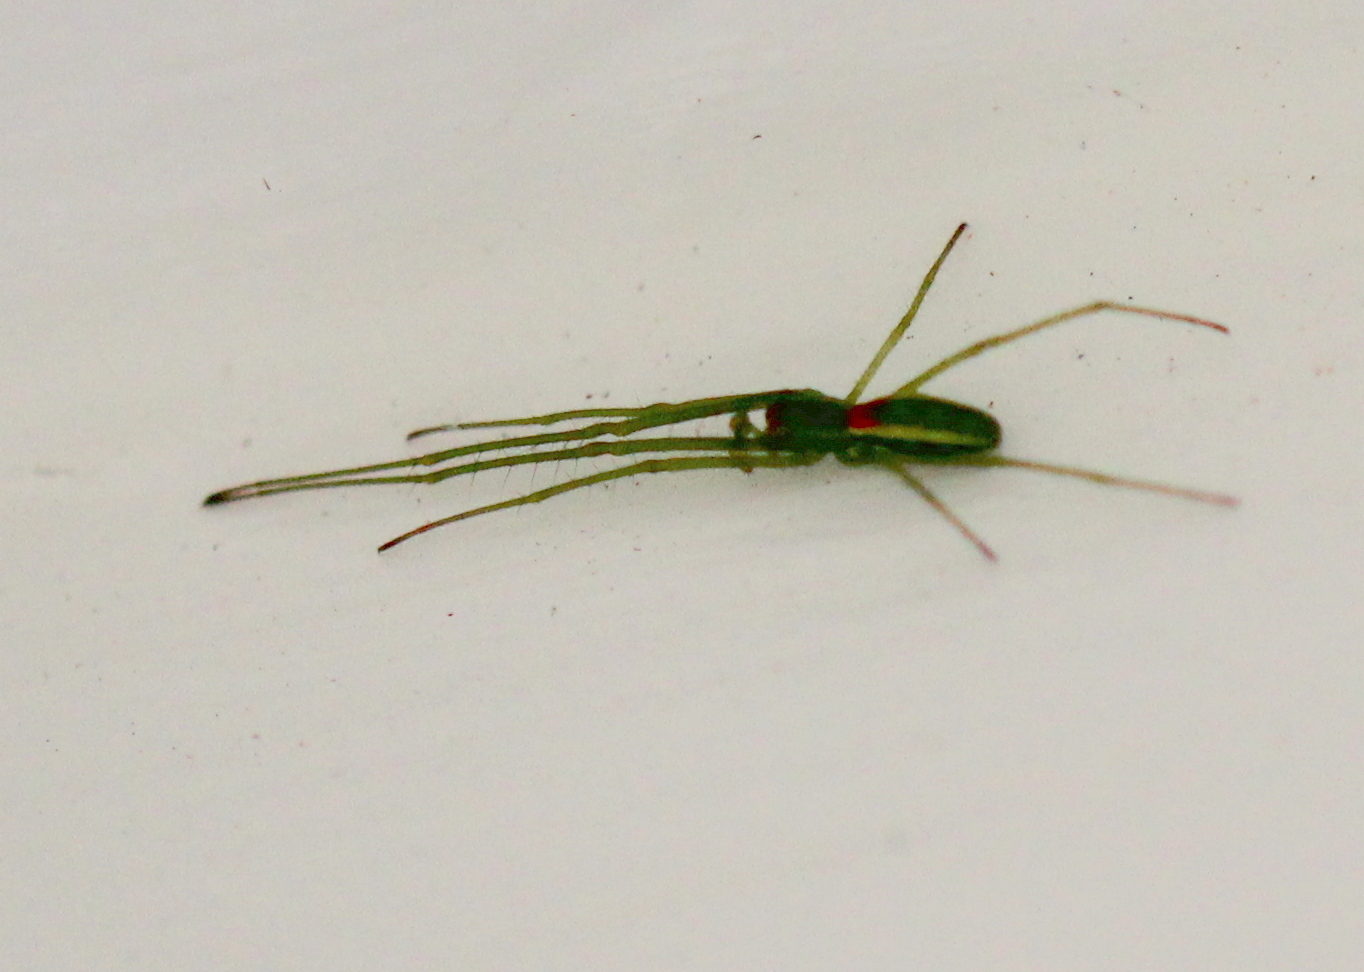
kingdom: Animalia
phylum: Arthropoda
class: Arachnida
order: Araneae
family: Tetragnathidae
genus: Tetragnatha
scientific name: Tetragnatha viridis
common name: Green long-jawed spider
